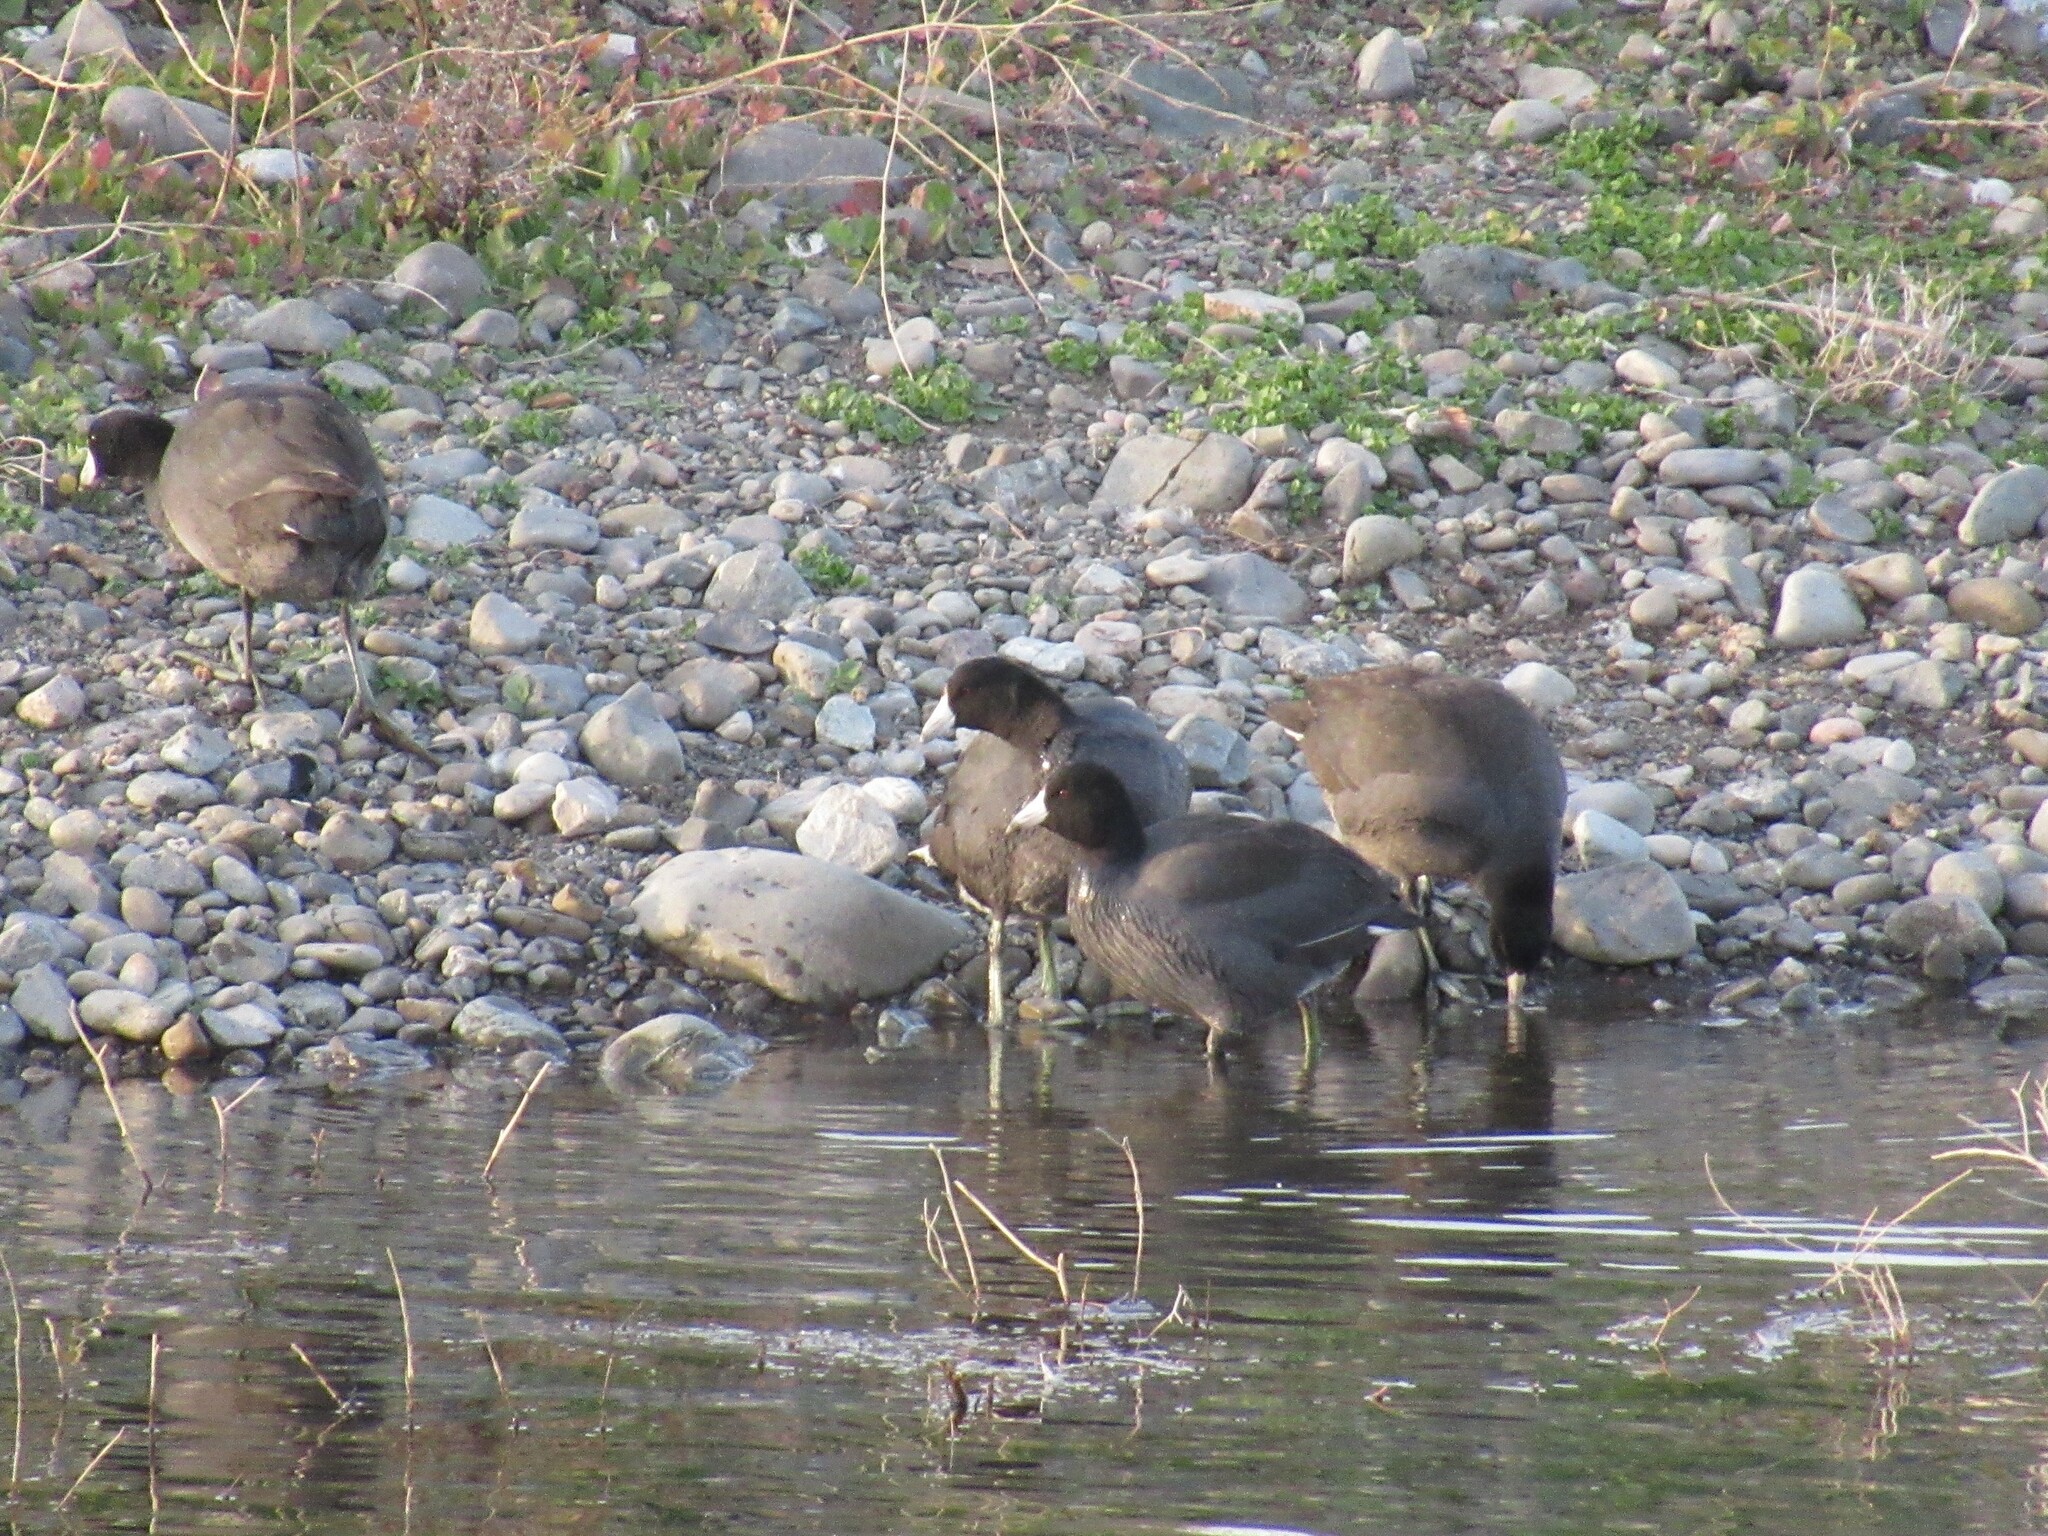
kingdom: Animalia
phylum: Chordata
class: Aves
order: Gruiformes
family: Rallidae
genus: Fulica
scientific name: Fulica americana
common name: American coot
